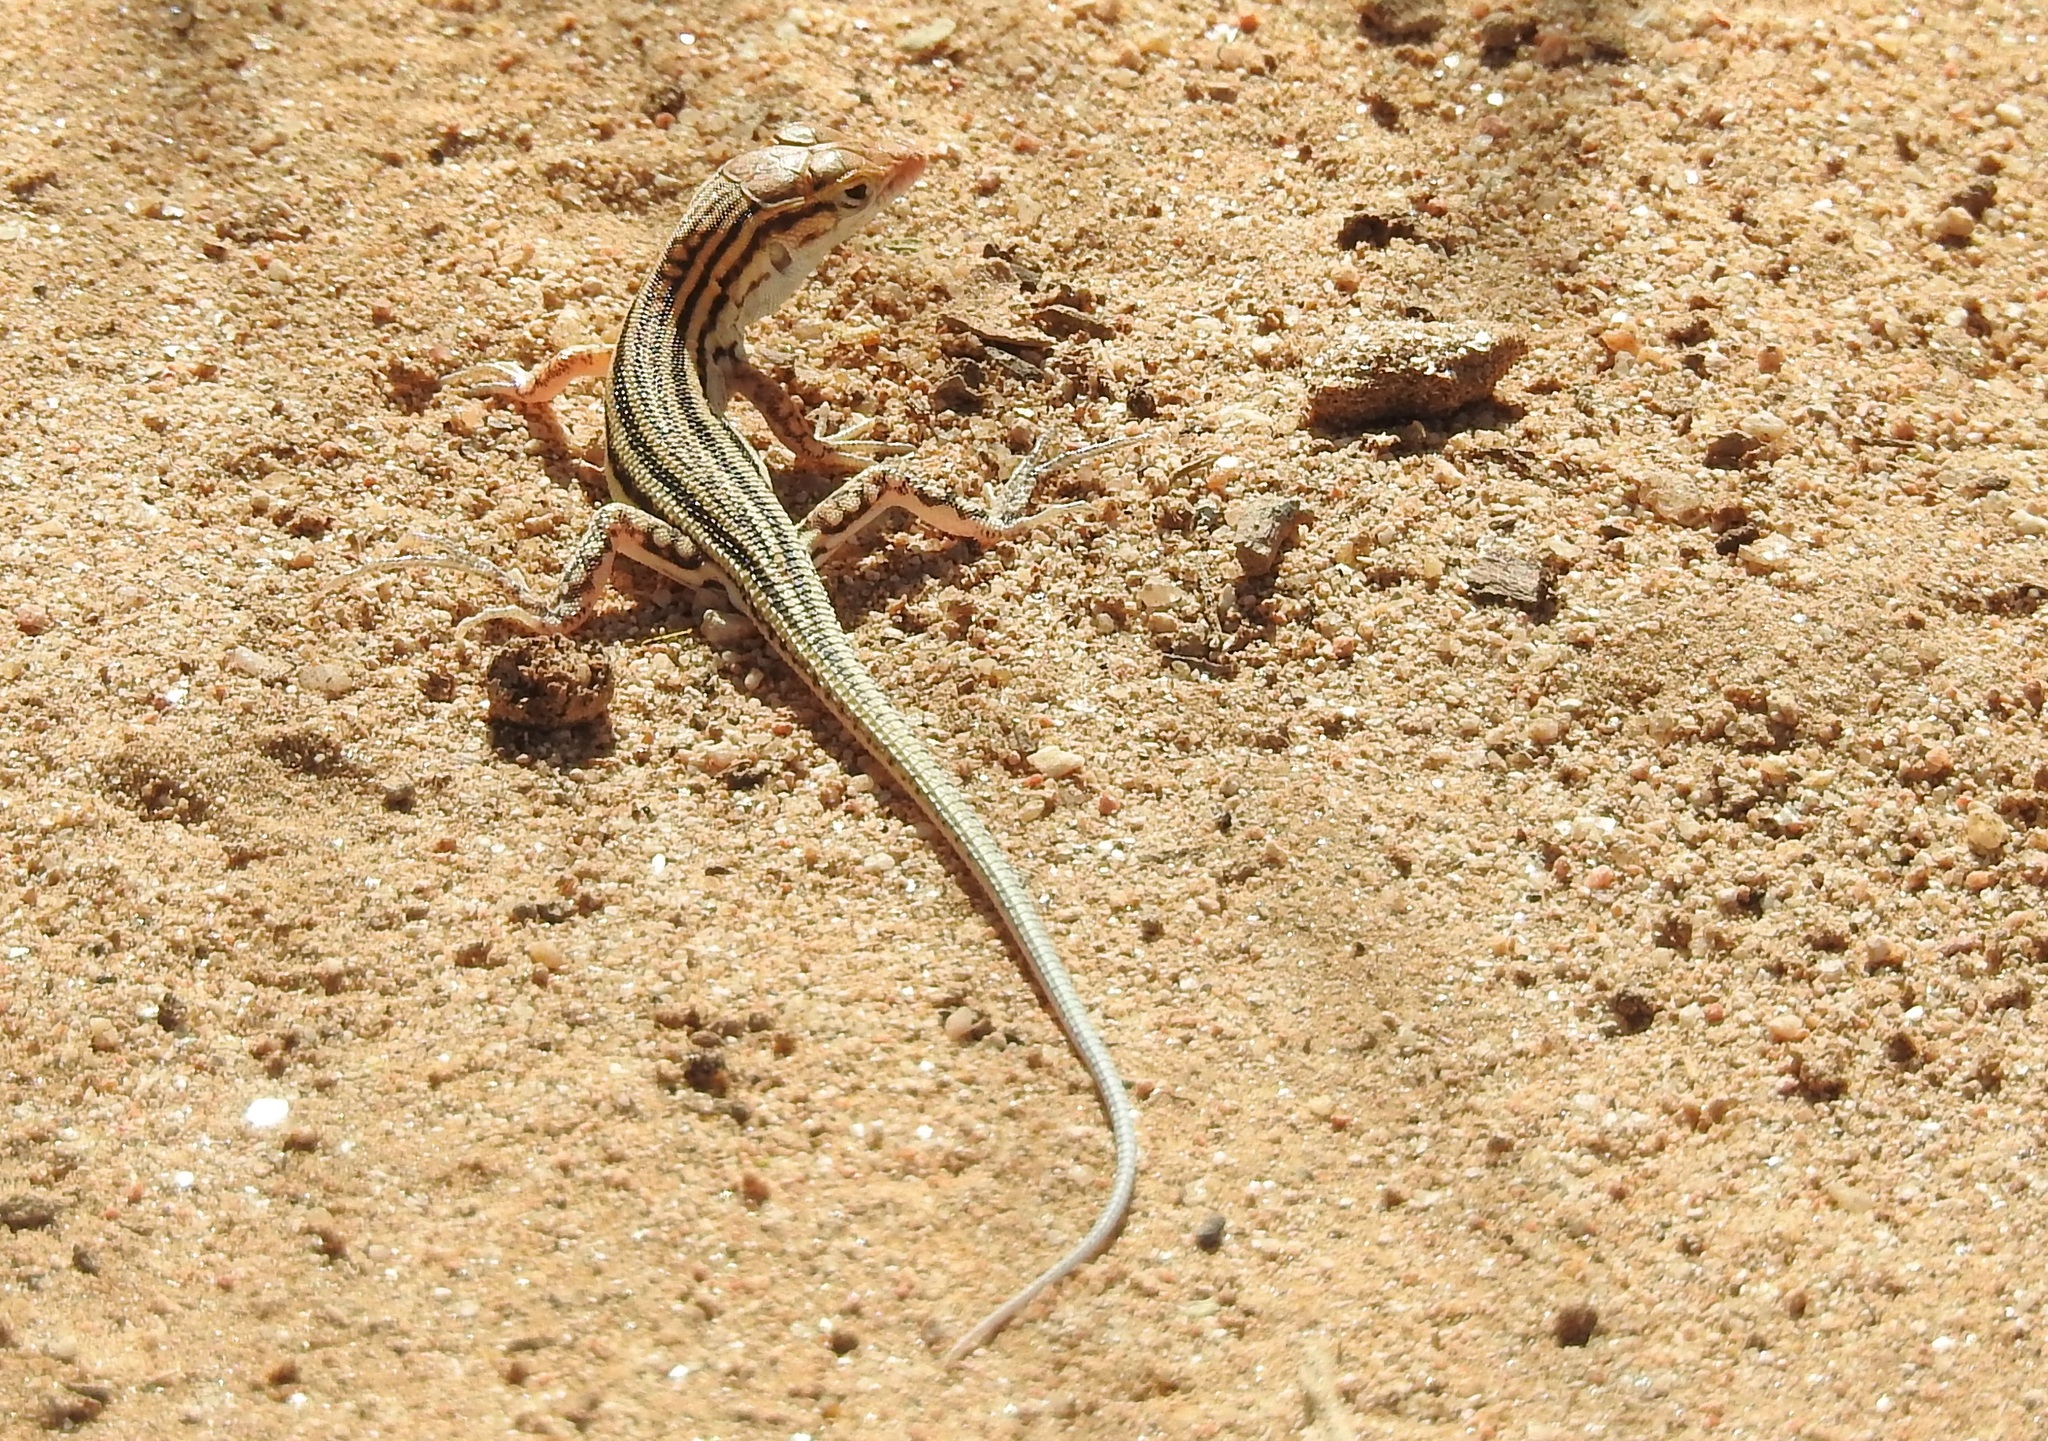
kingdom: Animalia
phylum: Chordata
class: Squamata
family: Lacertidae
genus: Acanthodactylus
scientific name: Acanthodactylus boskianus
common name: Bosc’s fringe-toed lizard
